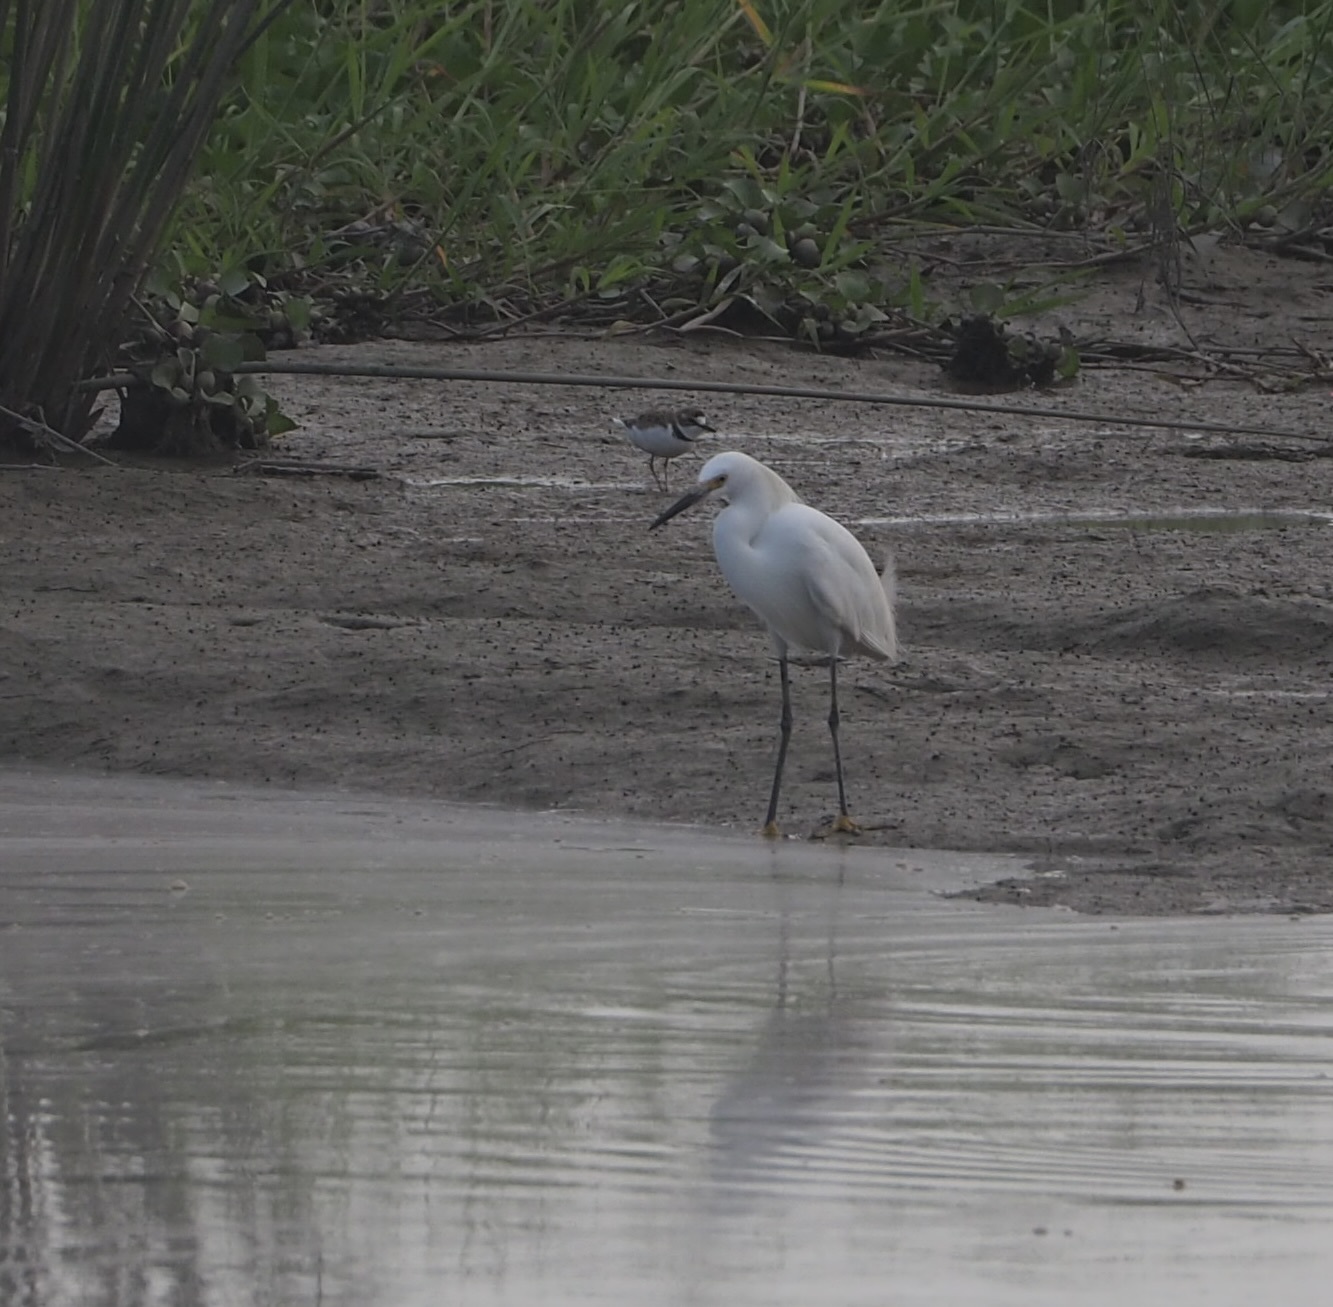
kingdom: Animalia
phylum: Chordata
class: Aves
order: Pelecaniformes
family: Ardeidae
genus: Egretta
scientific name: Egretta thula
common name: Snowy egret
